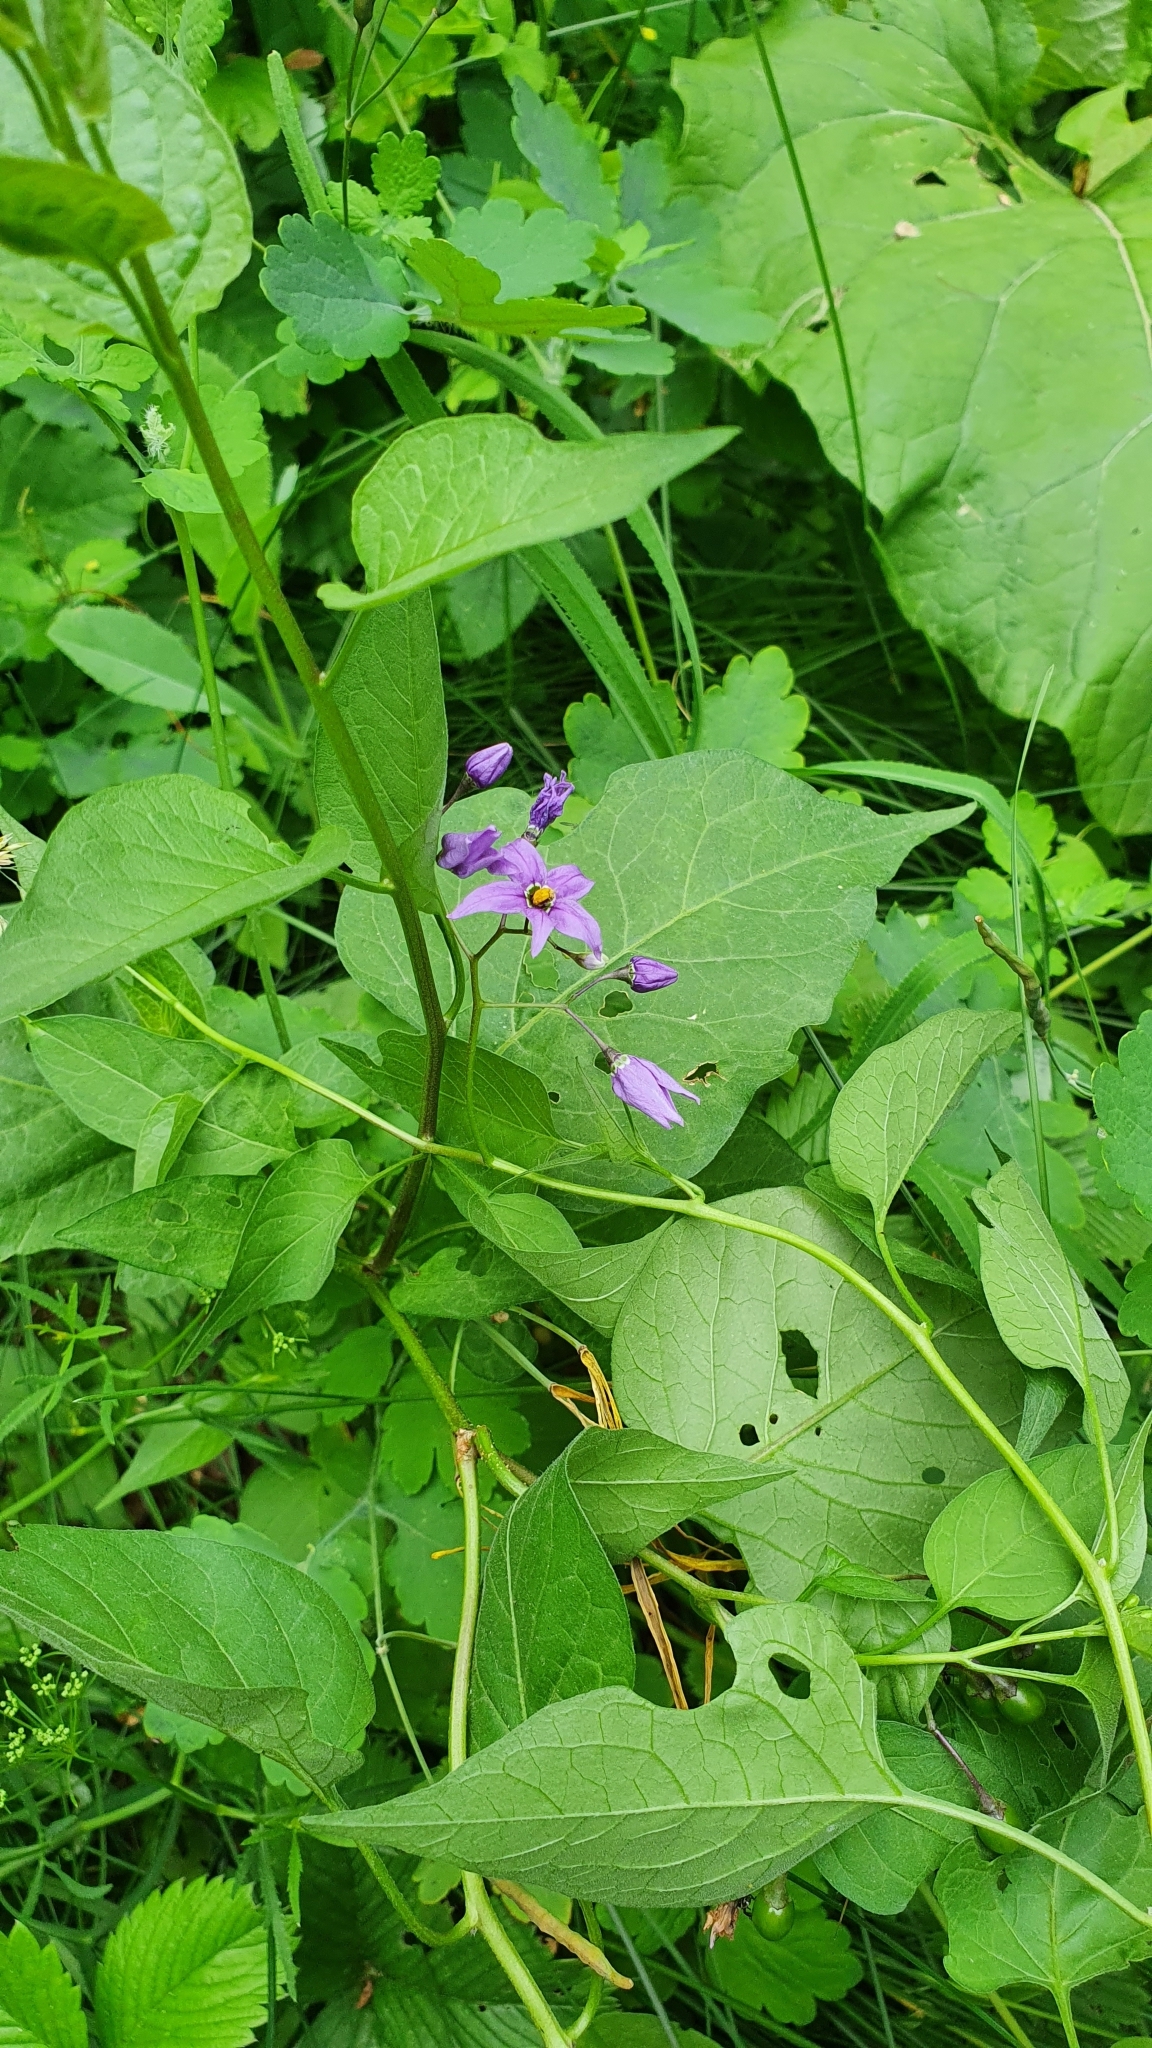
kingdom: Plantae
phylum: Tracheophyta
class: Magnoliopsida
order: Solanales
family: Solanaceae
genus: Solanum
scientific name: Solanum dulcamara
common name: Climbing nightshade
